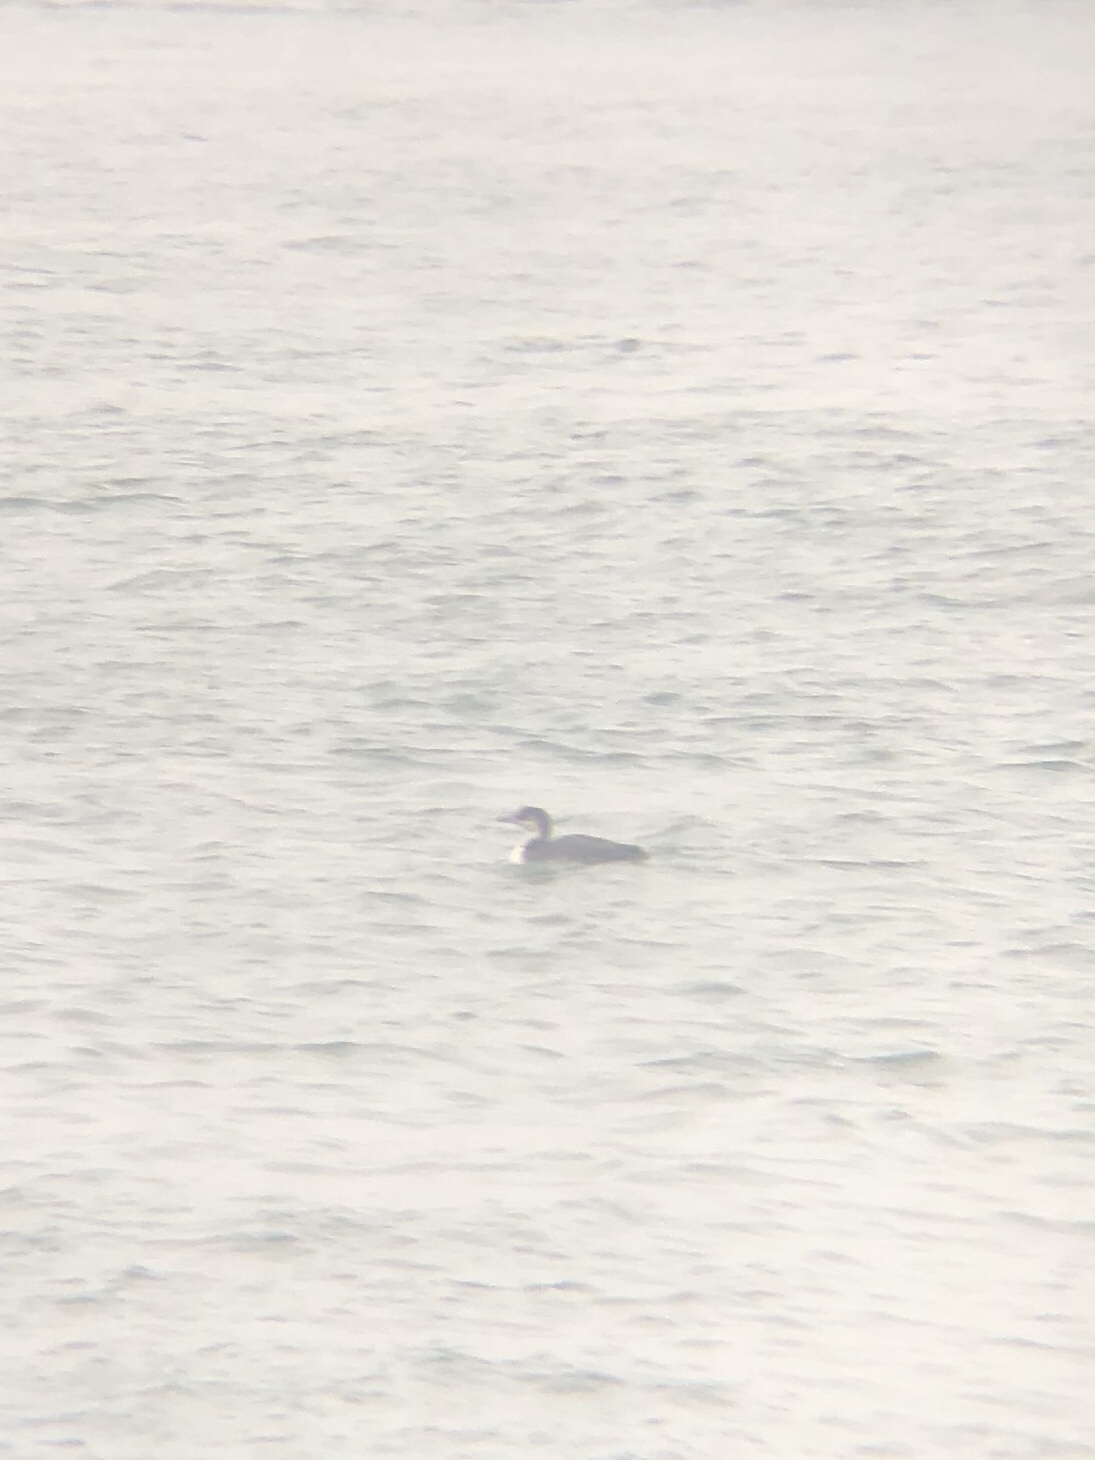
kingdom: Animalia
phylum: Chordata
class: Aves
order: Gaviiformes
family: Gaviidae
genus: Gavia
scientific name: Gavia pacifica
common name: Pacific loon
